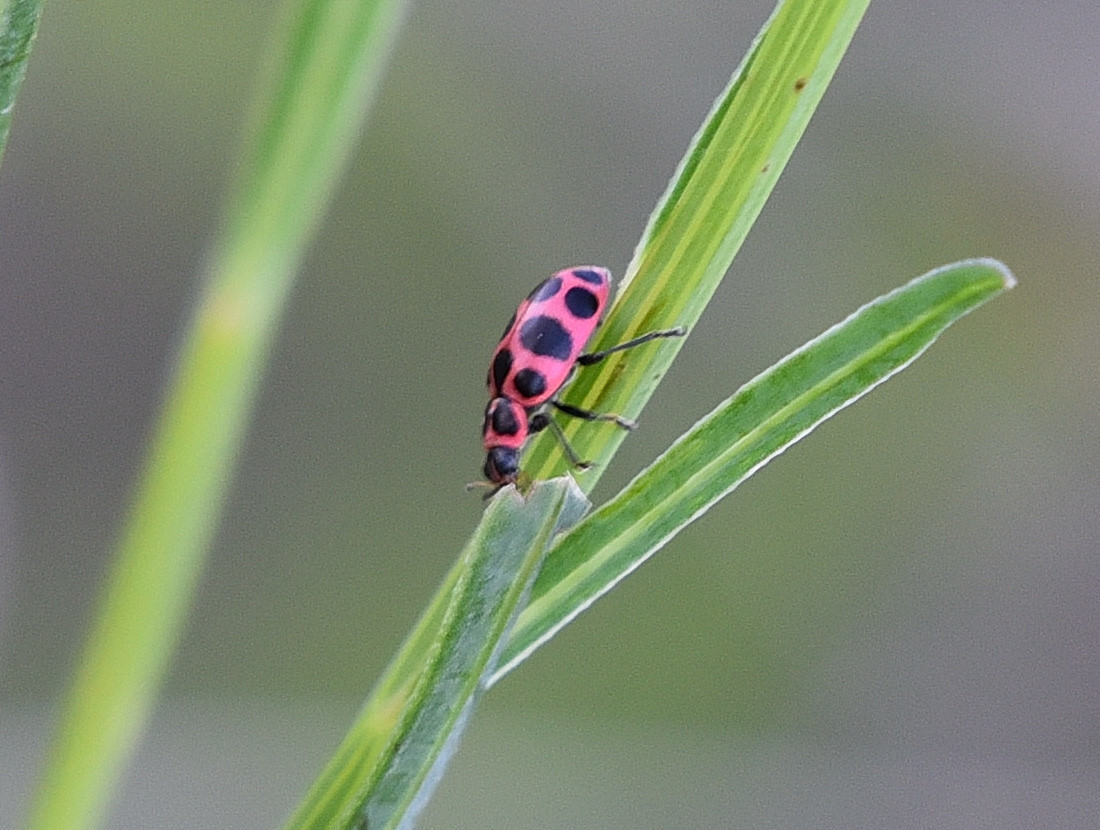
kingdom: Animalia
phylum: Arthropoda
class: Insecta
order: Coleoptera
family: Coccinellidae
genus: Coleomegilla
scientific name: Coleomegilla maculata
